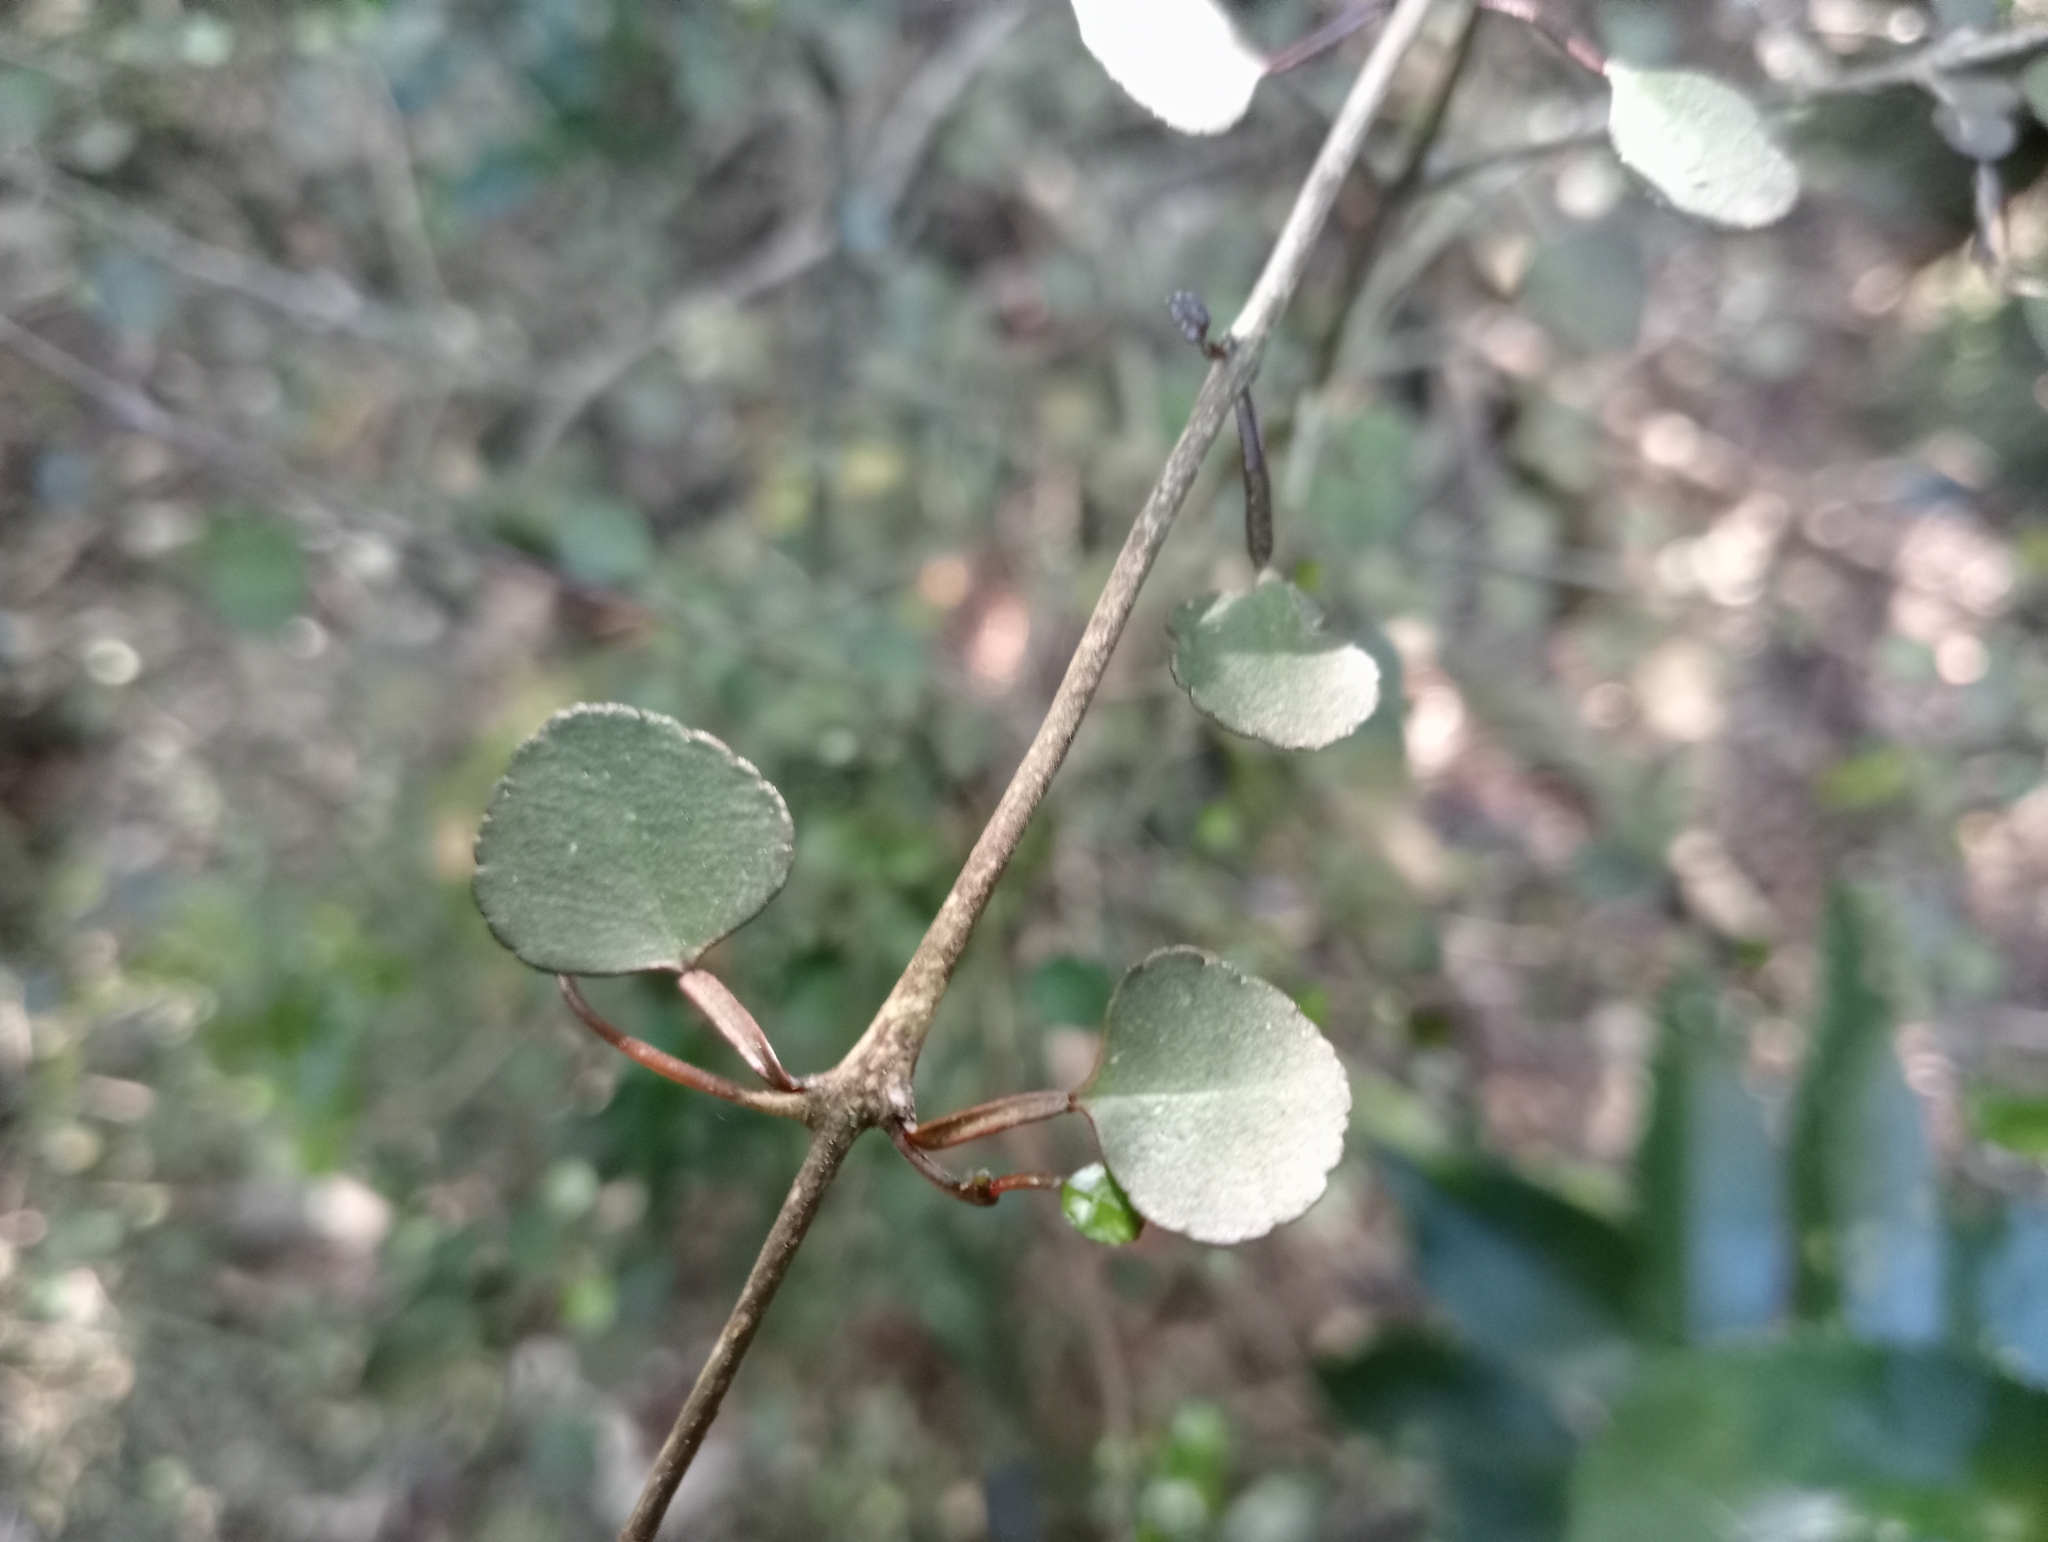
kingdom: Plantae
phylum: Tracheophyta
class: Magnoliopsida
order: Sapindales
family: Rutaceae
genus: Melicope
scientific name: Melicope simplex
